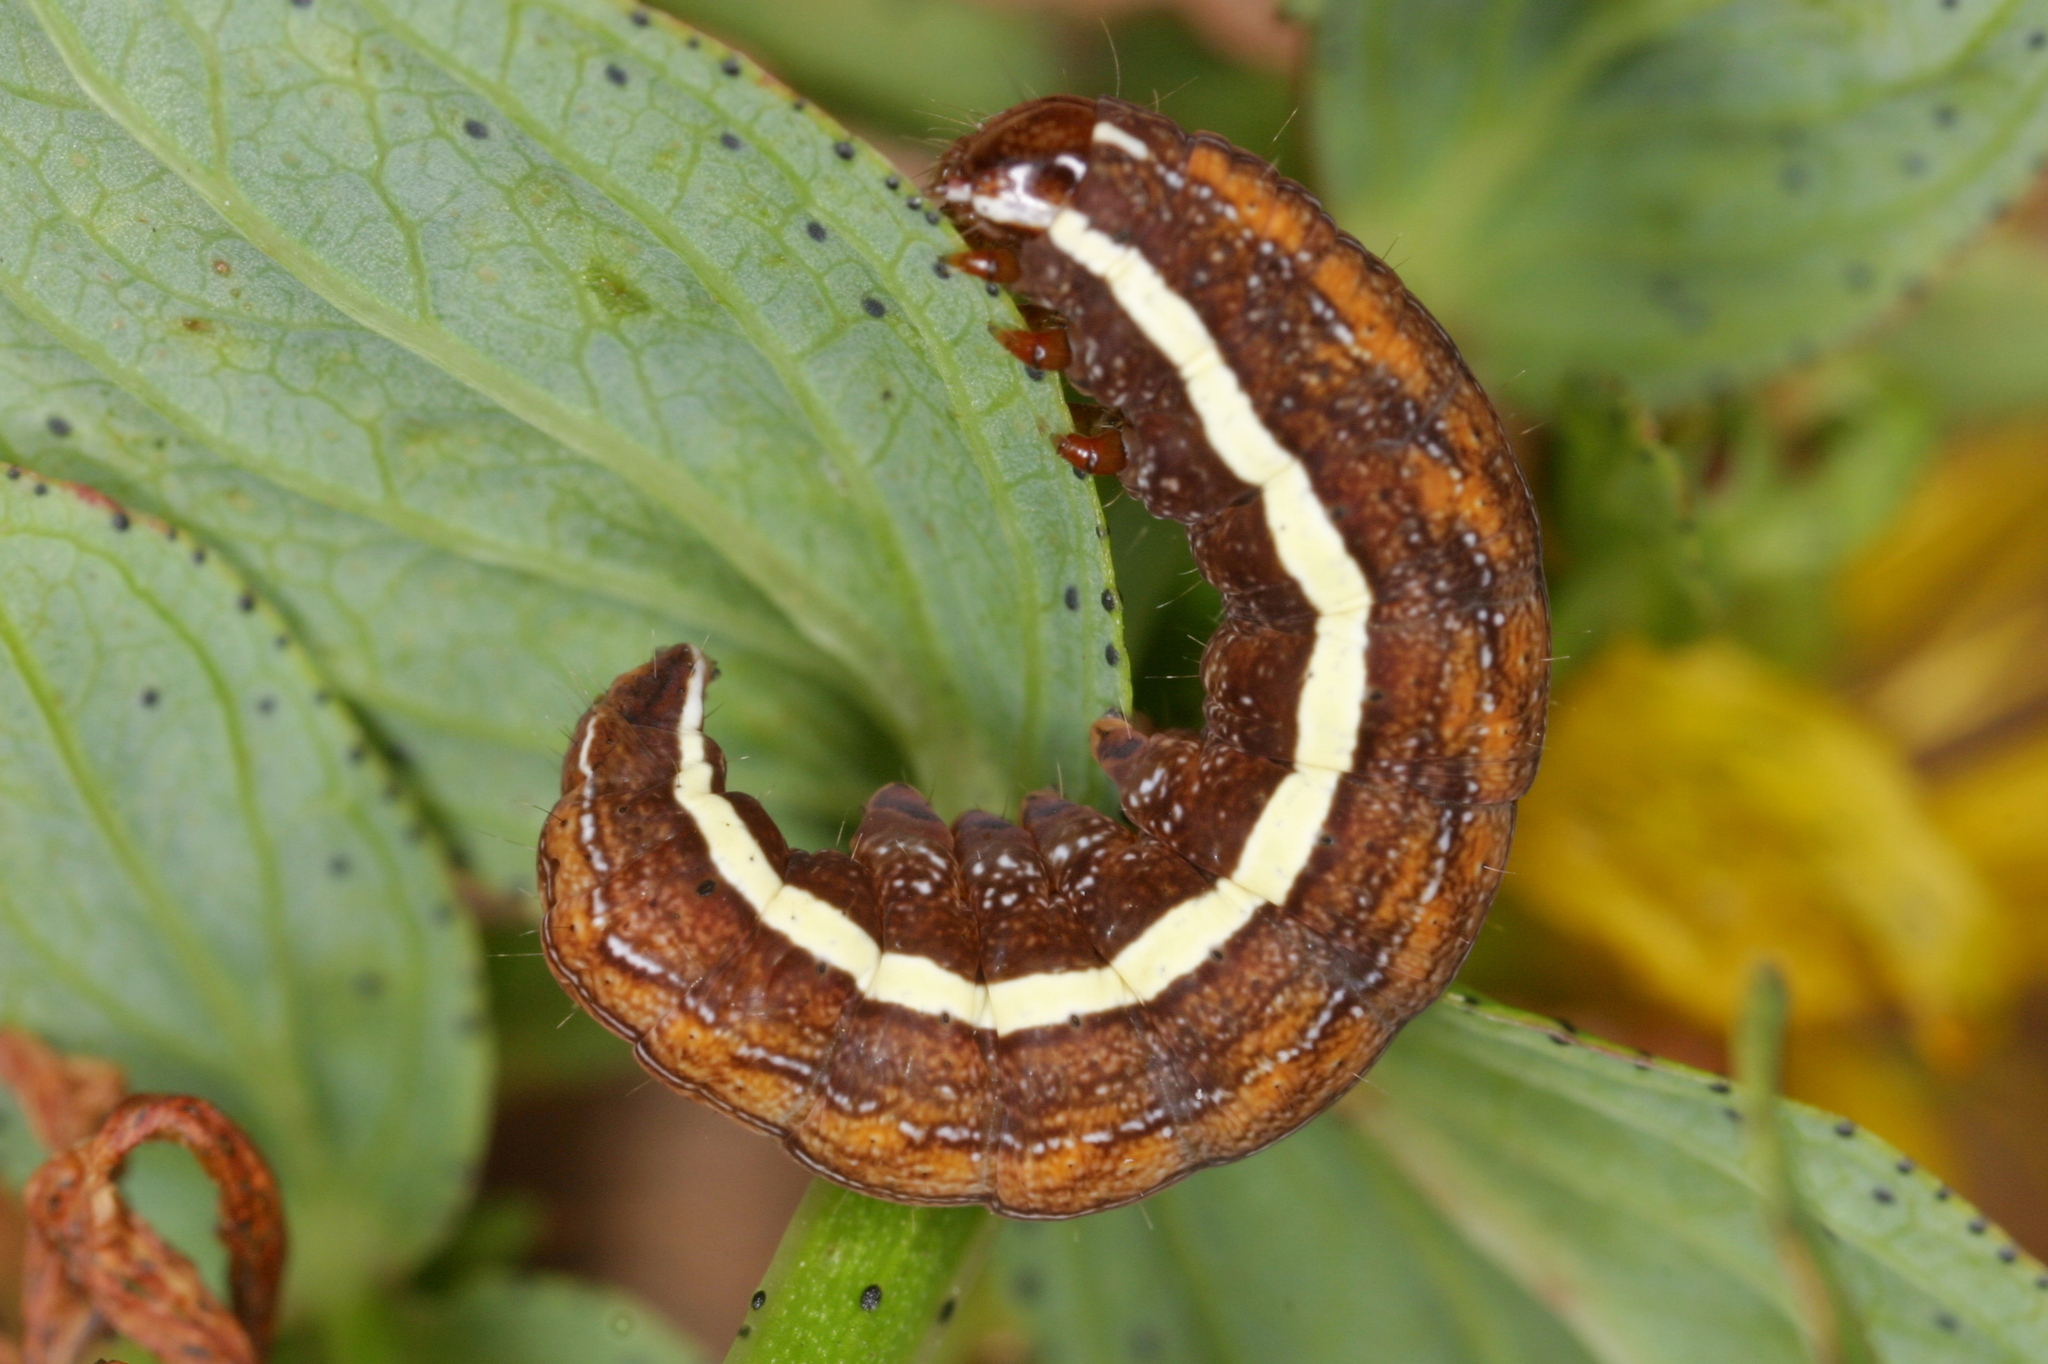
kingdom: Animalia
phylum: Arthropoda
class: Insecta
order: Lepidoptera
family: Noctuidae
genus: Actinotia
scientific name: Actinotia polyodon
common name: Purple cloud
